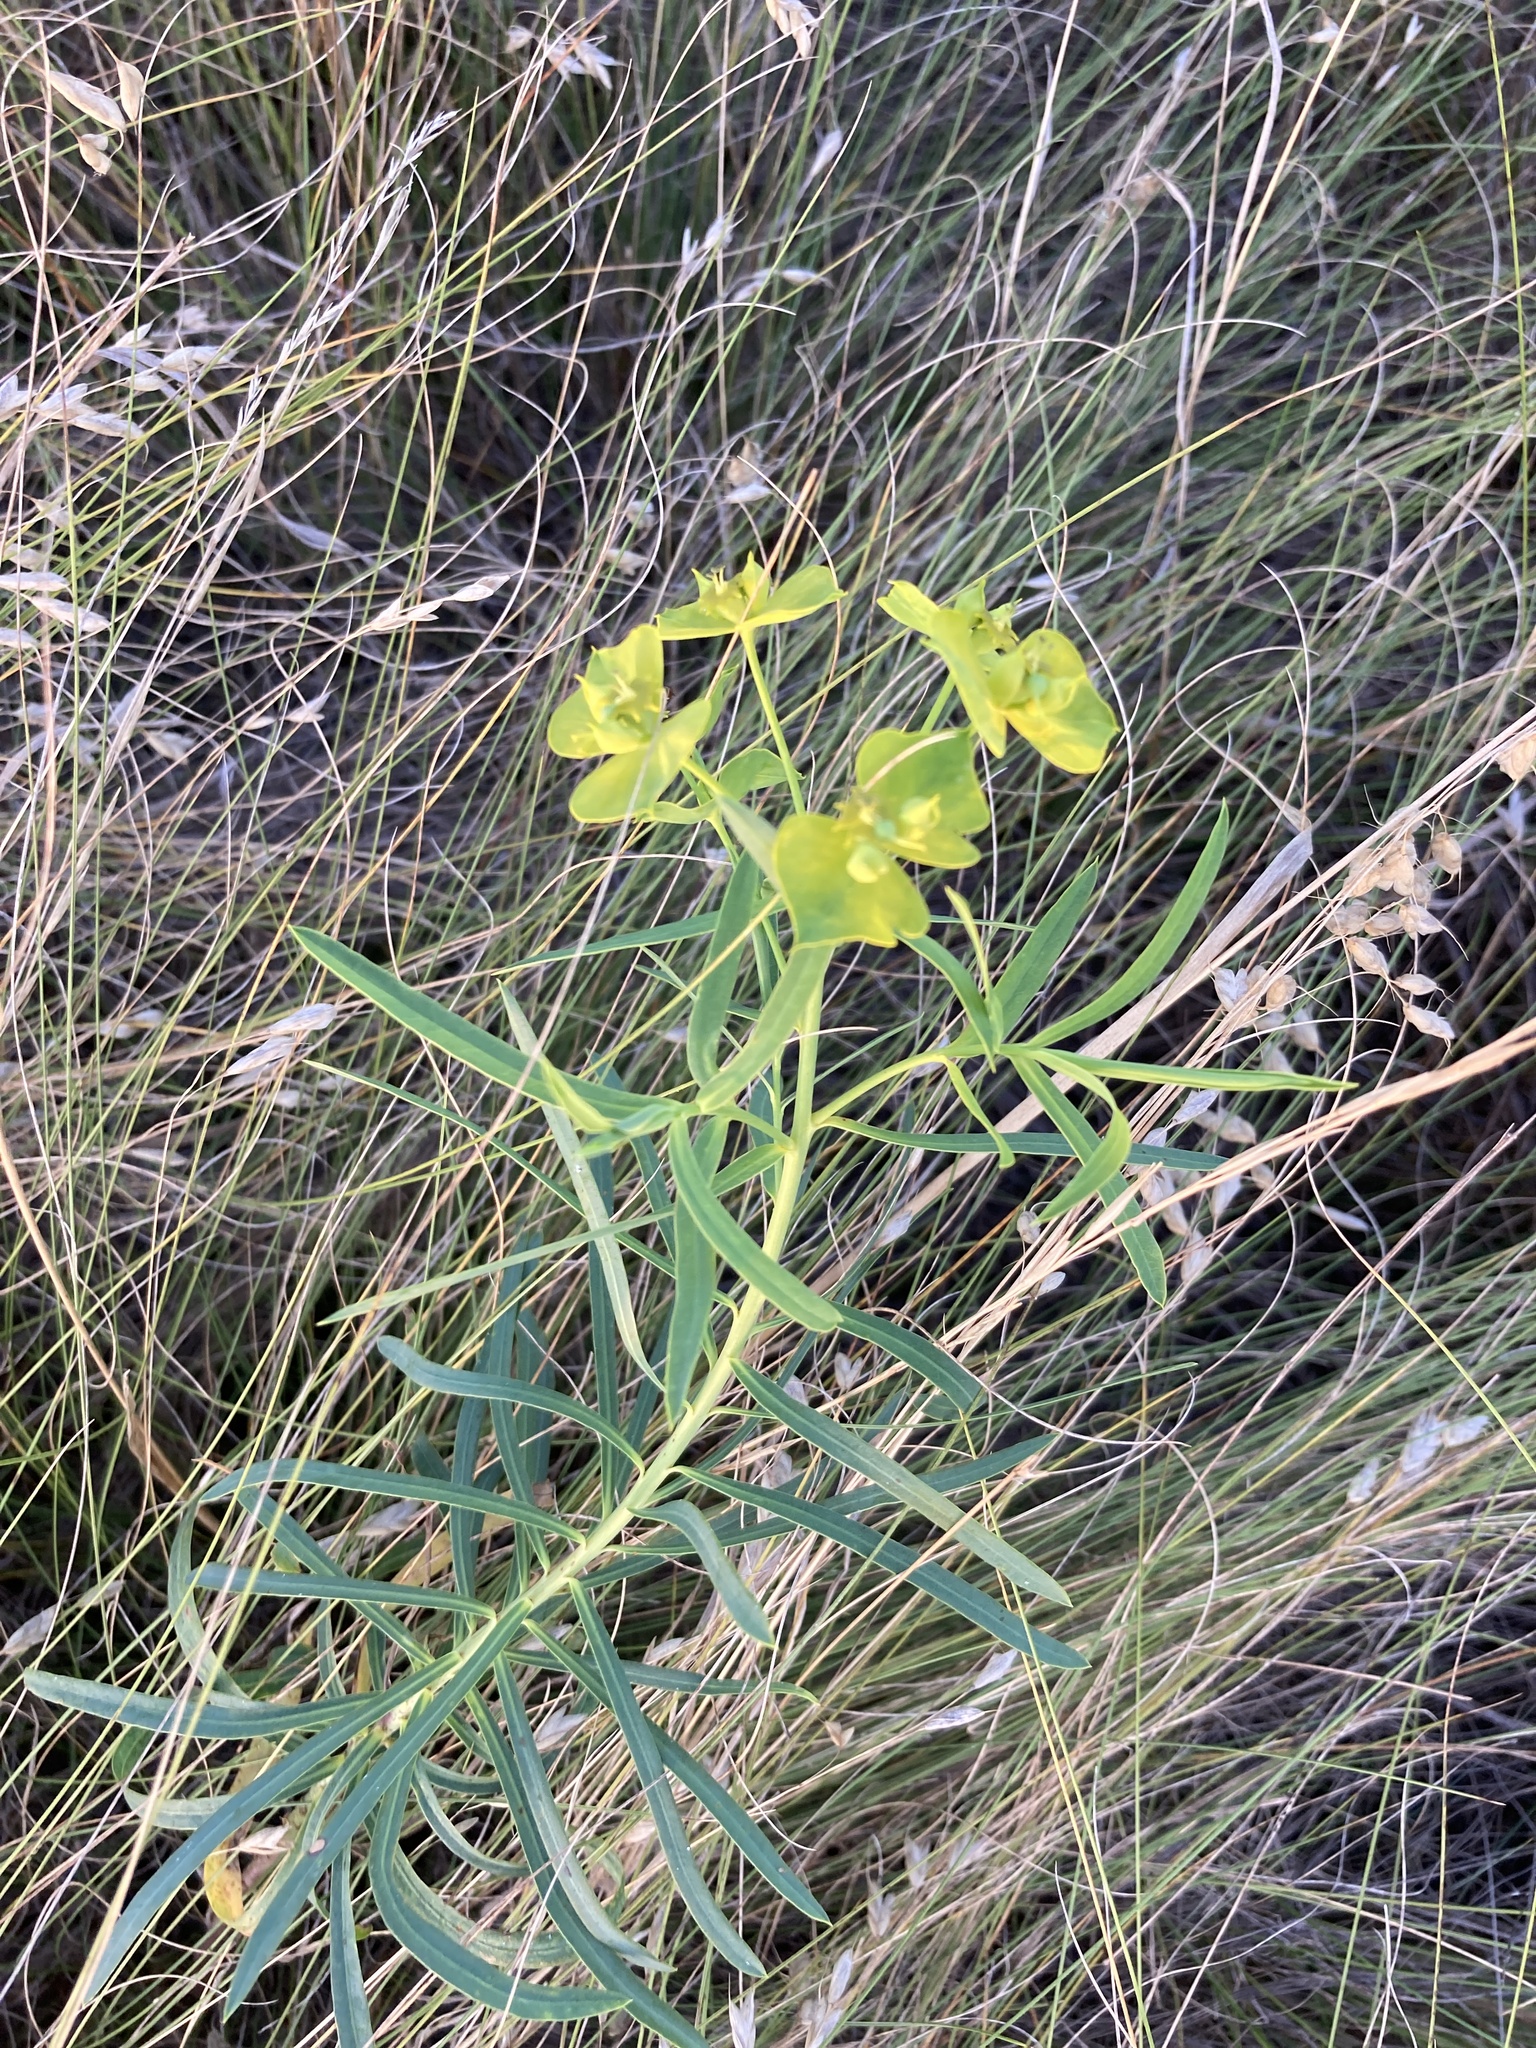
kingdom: Plantae
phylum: Tracheophyta
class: Magnoliopsida
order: Malpighiales
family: Euphorbiaceae
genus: Euphorbia
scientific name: Euphorbia virgata
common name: Leafy spurge
